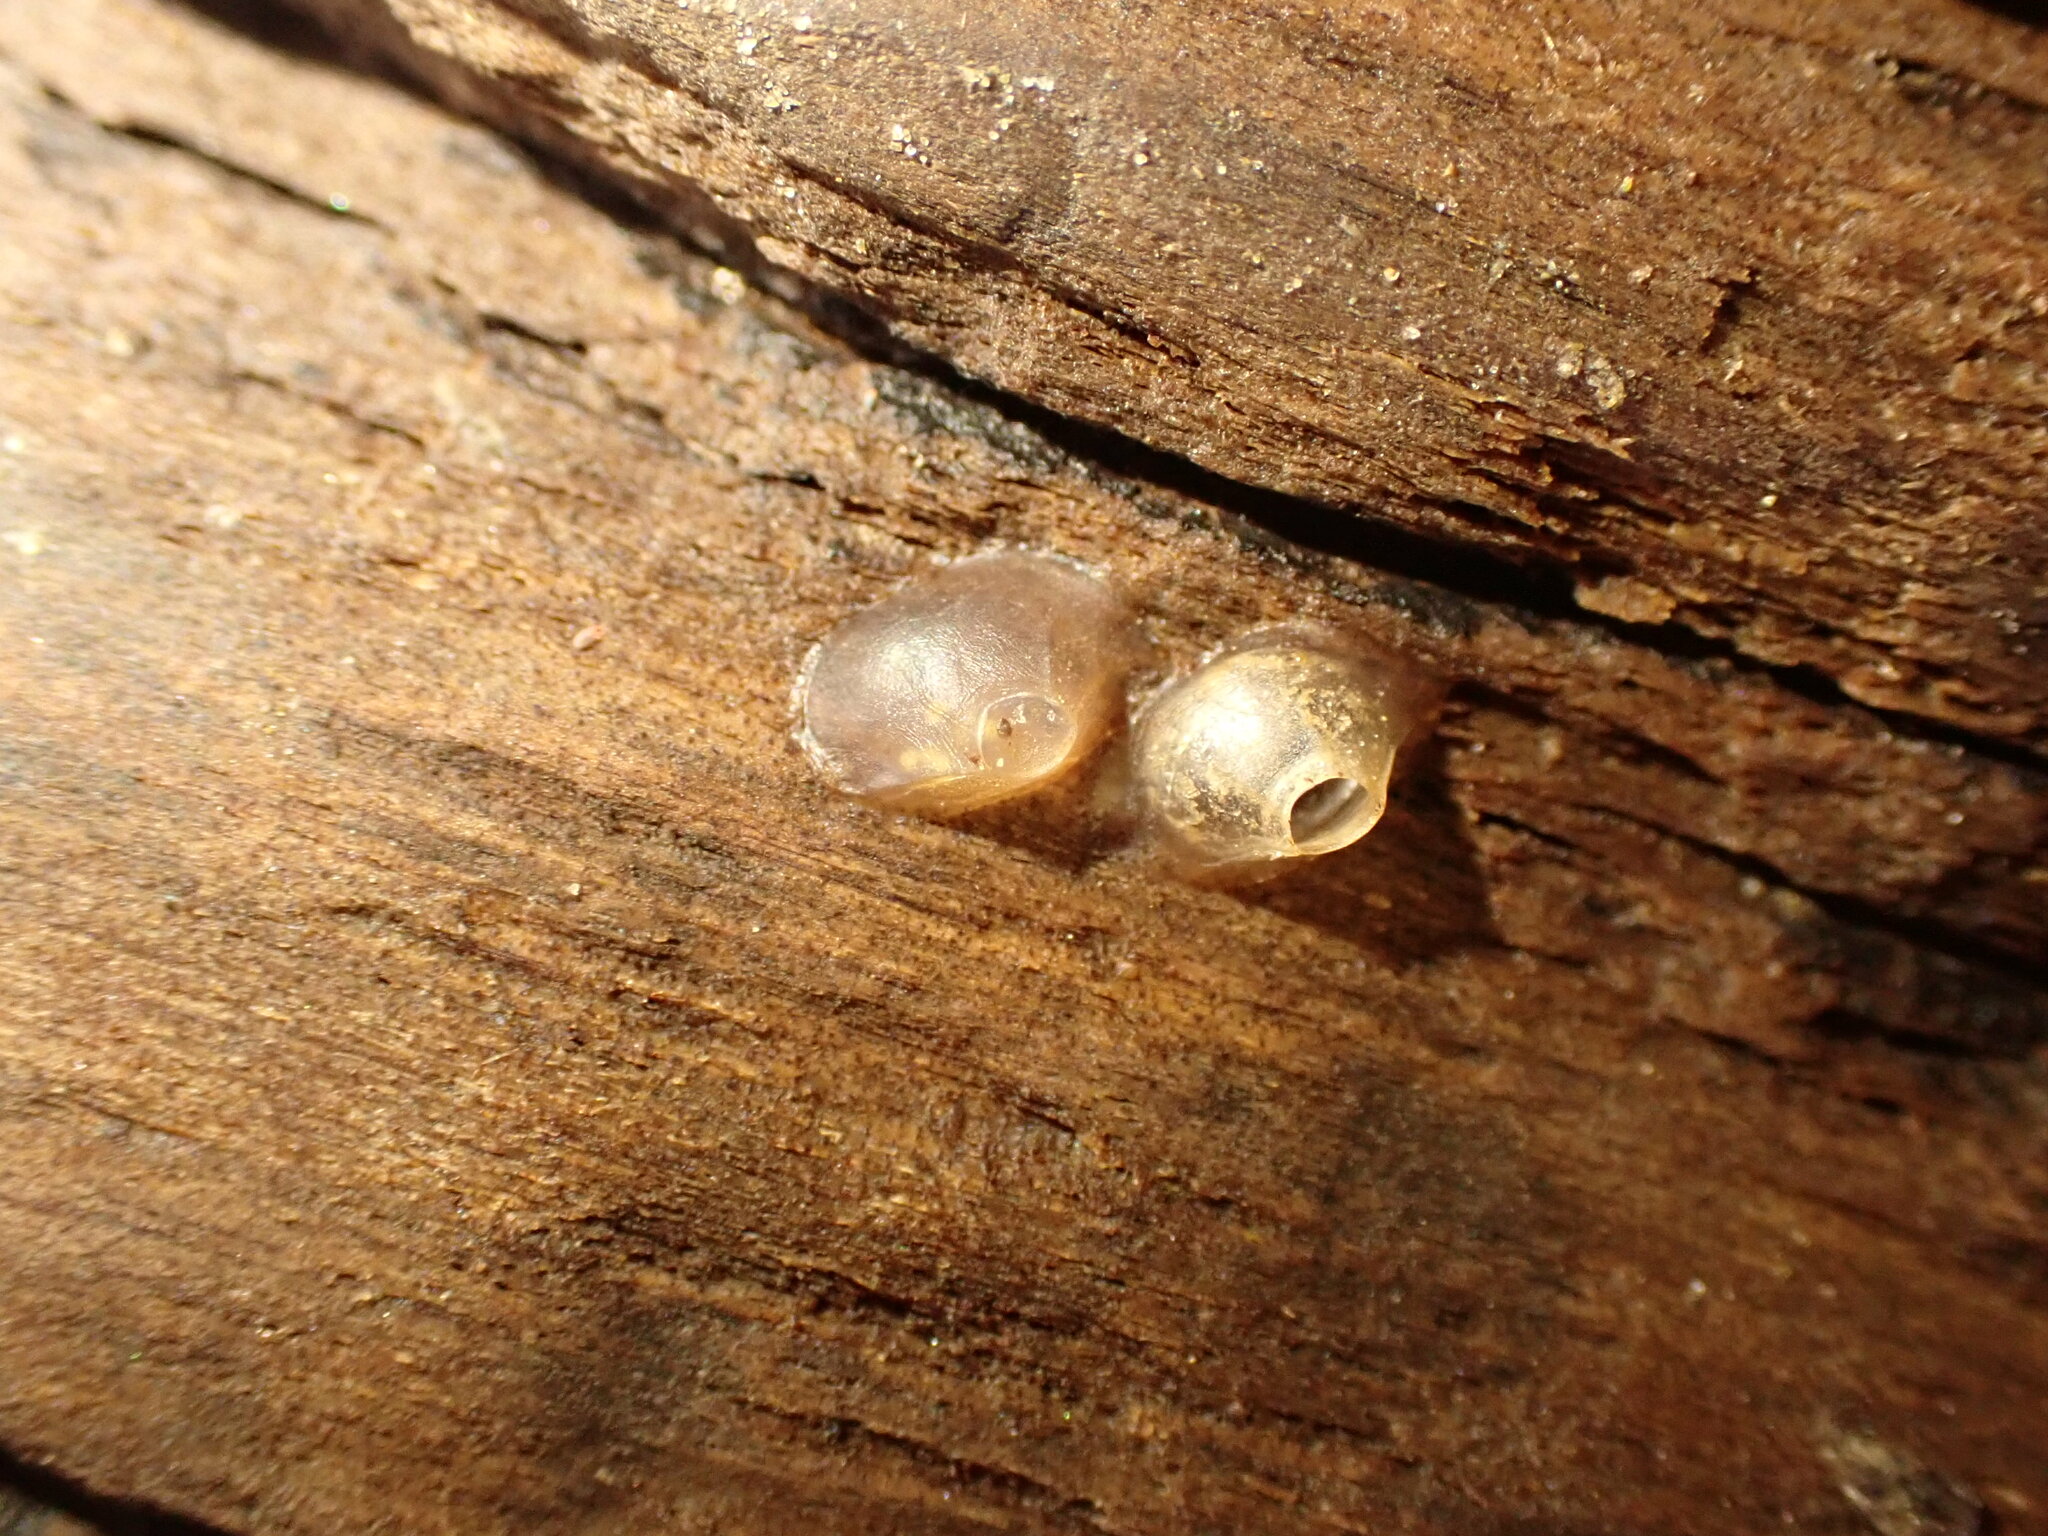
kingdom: Animalia
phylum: Mollusca
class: Gastropoda
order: Neogastropoda
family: Cominellidae
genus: Cominella
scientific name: Cominella glandiformis
